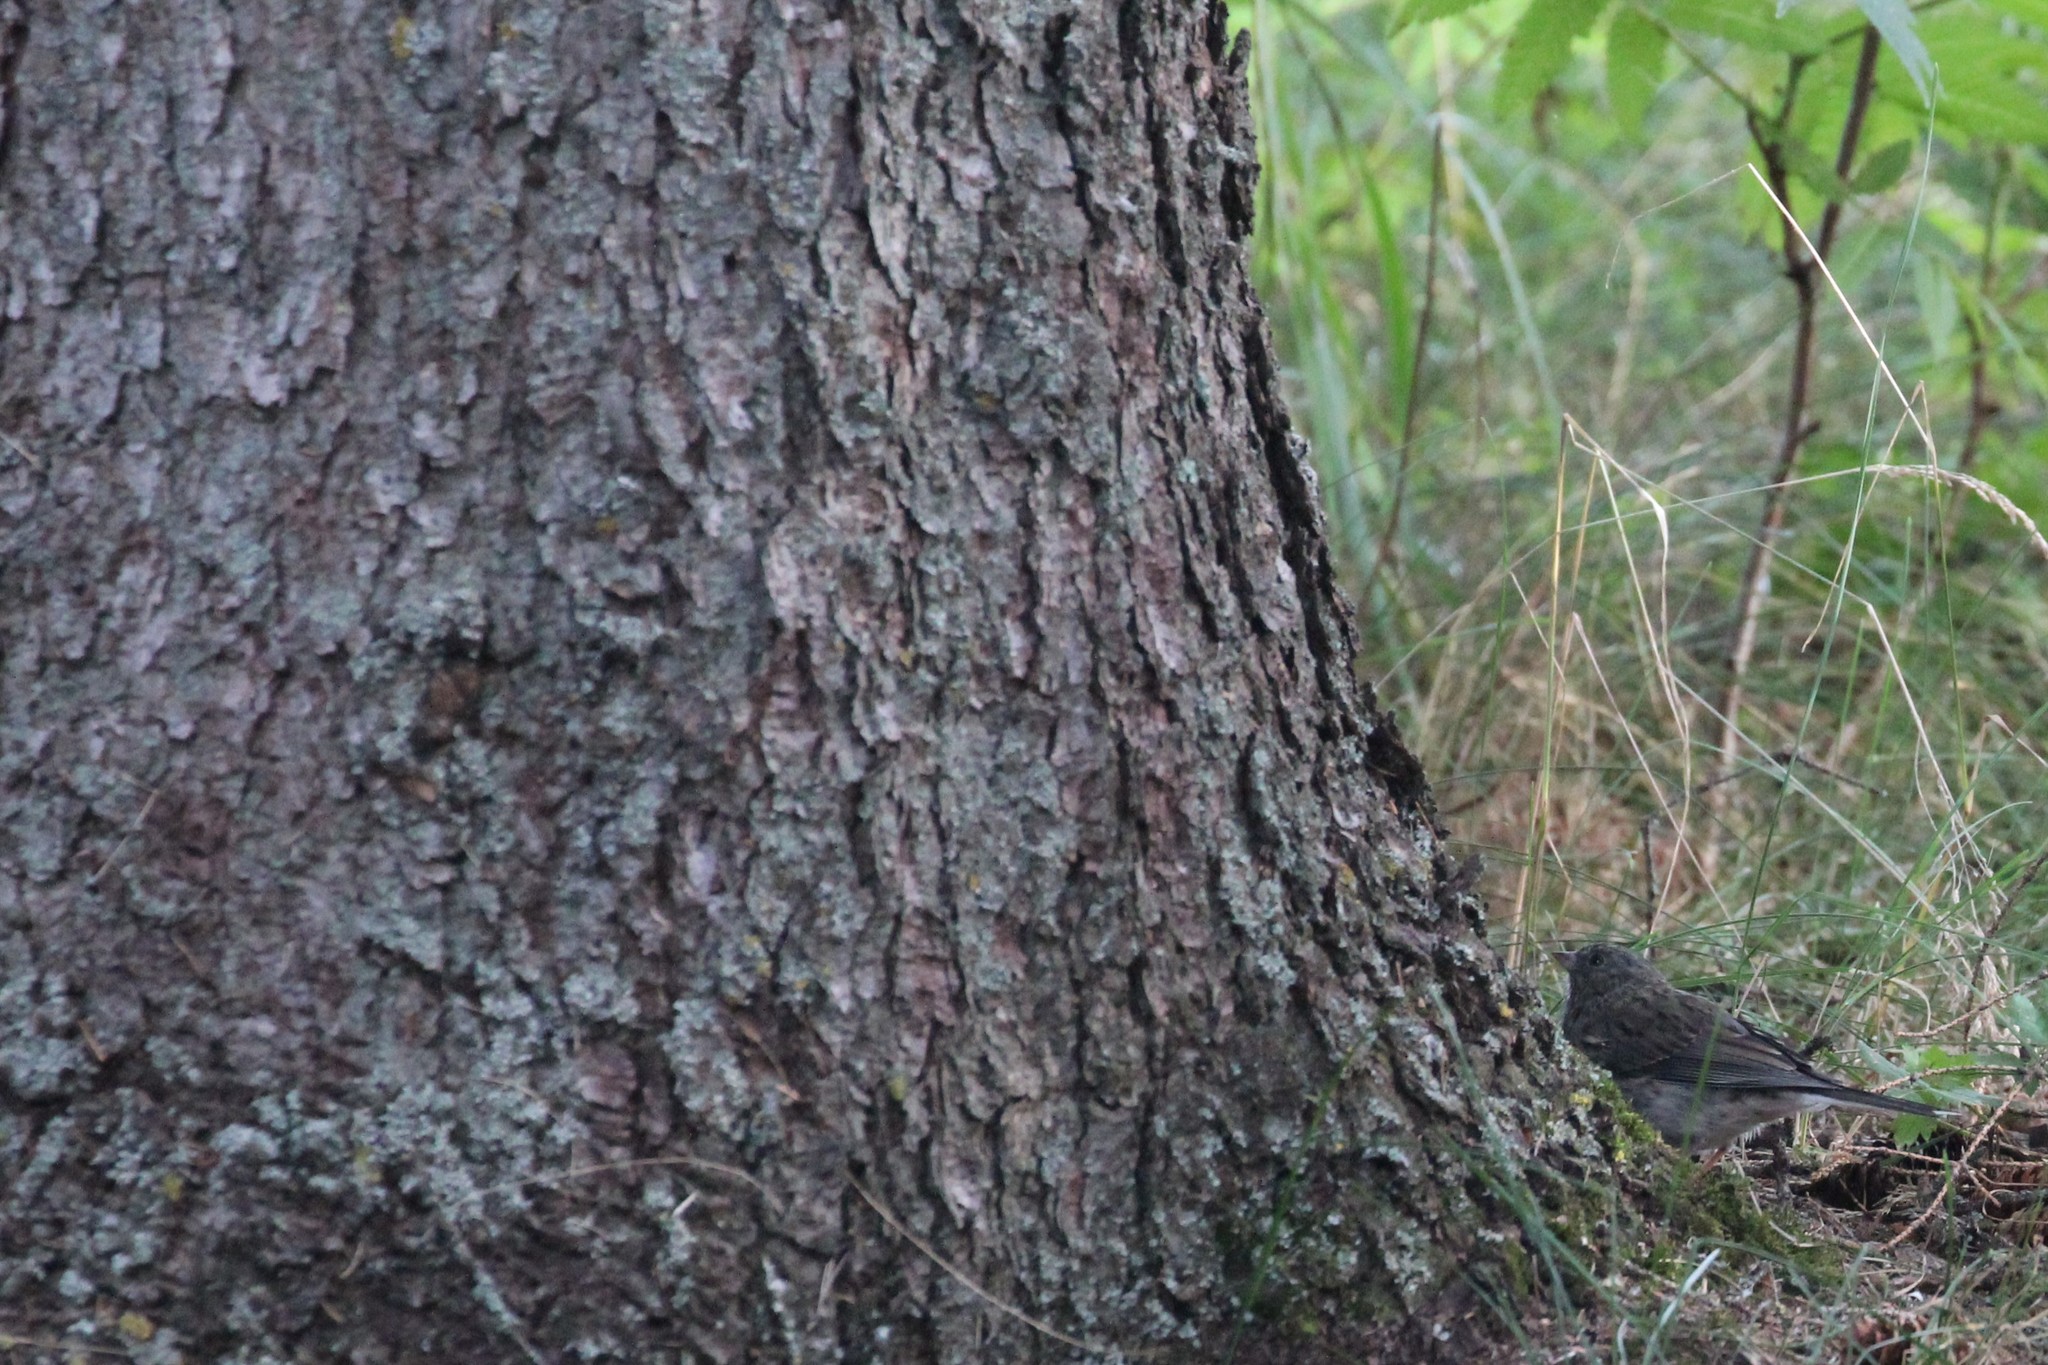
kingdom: Animalia
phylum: Chordata
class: Aves
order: Passeriformes
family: Passerellidae
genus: Junco
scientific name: Junco hyemalis
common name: Dark-eyed junco
